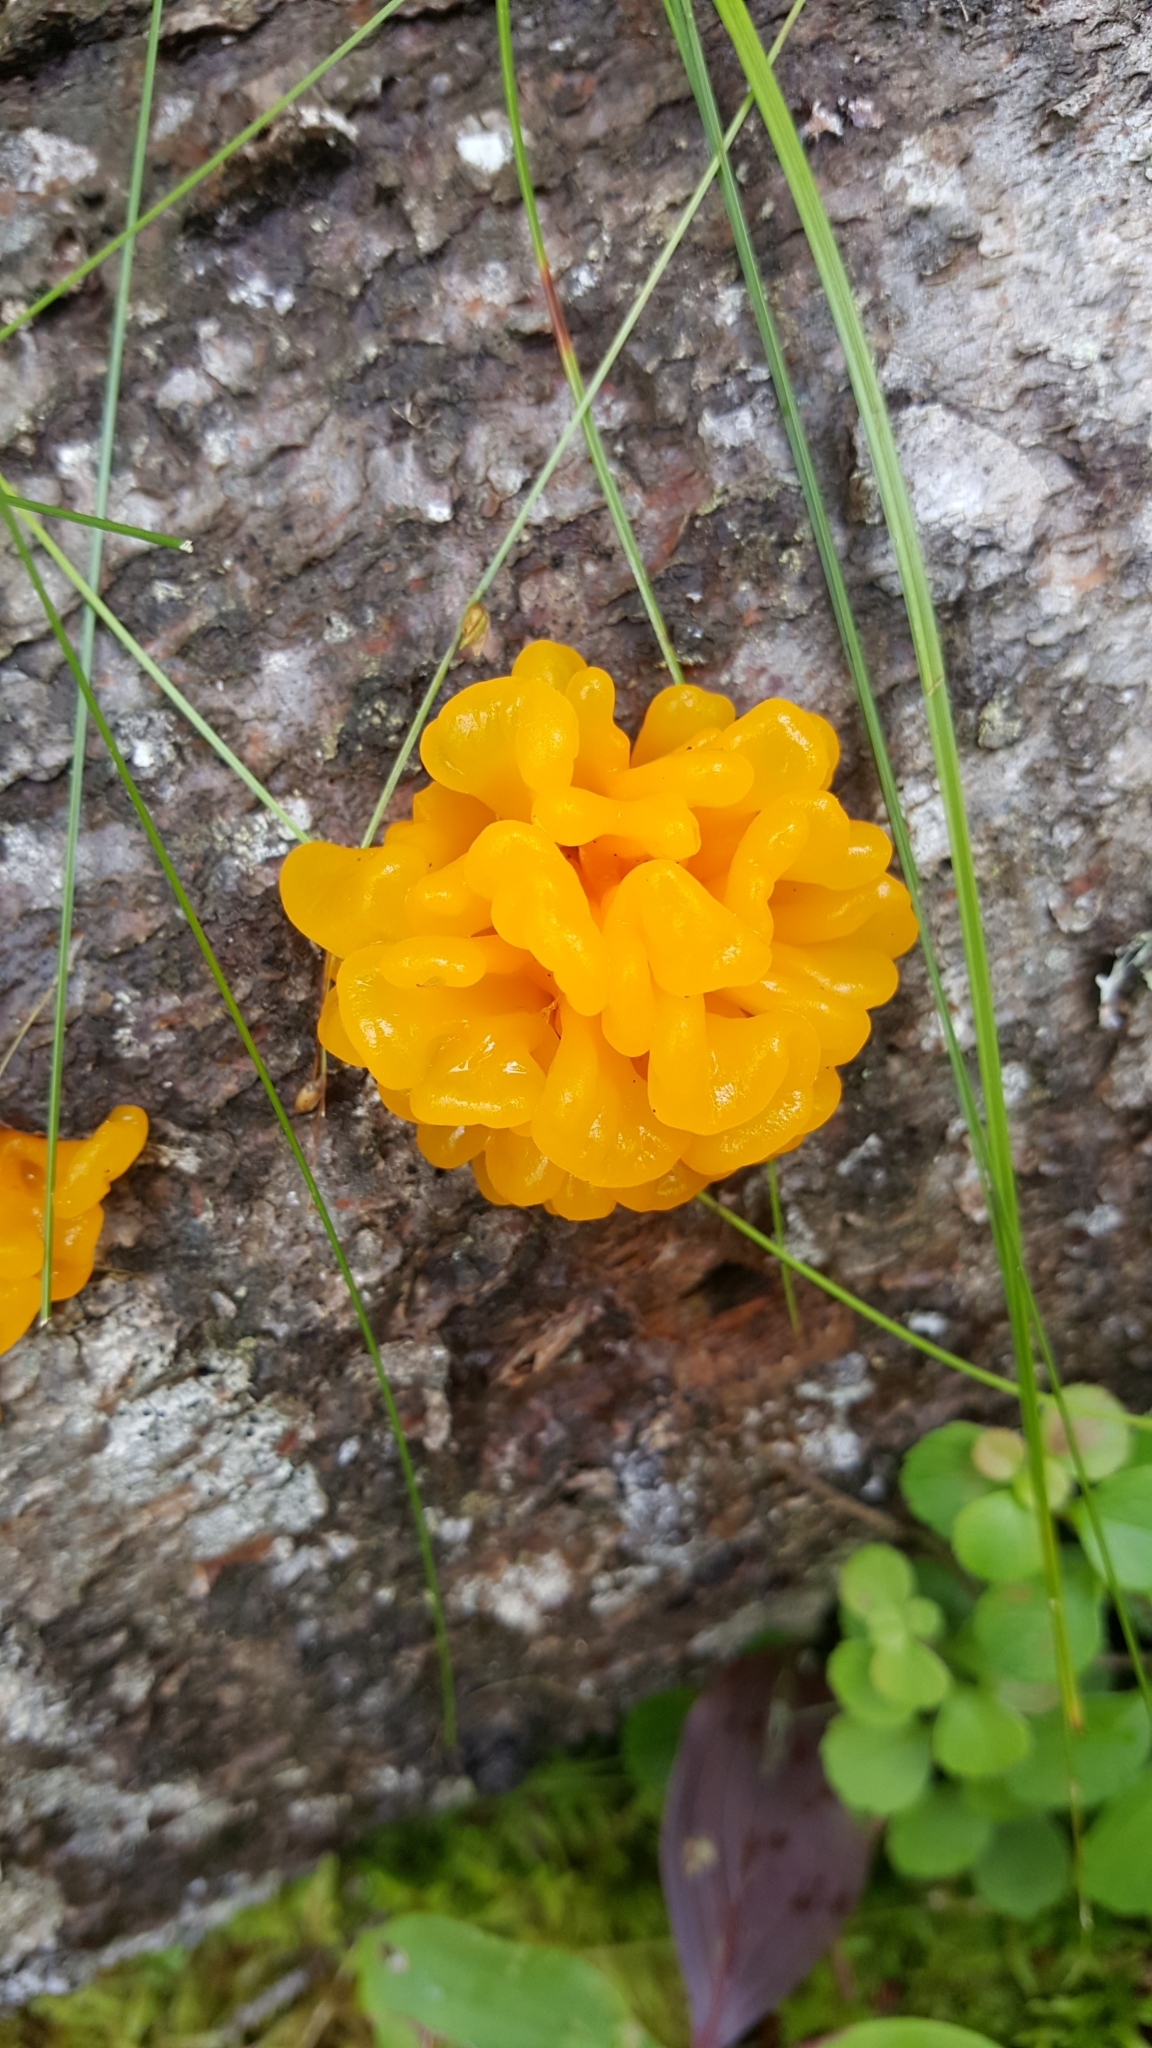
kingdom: Fungi
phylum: Basidiomycota
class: Dacrymycetes
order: Dacrymycetales
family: Dacrymycetaceae
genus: Dacrymyces
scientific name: Dacrymyces chrysospermus
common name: Orange jelly spot
